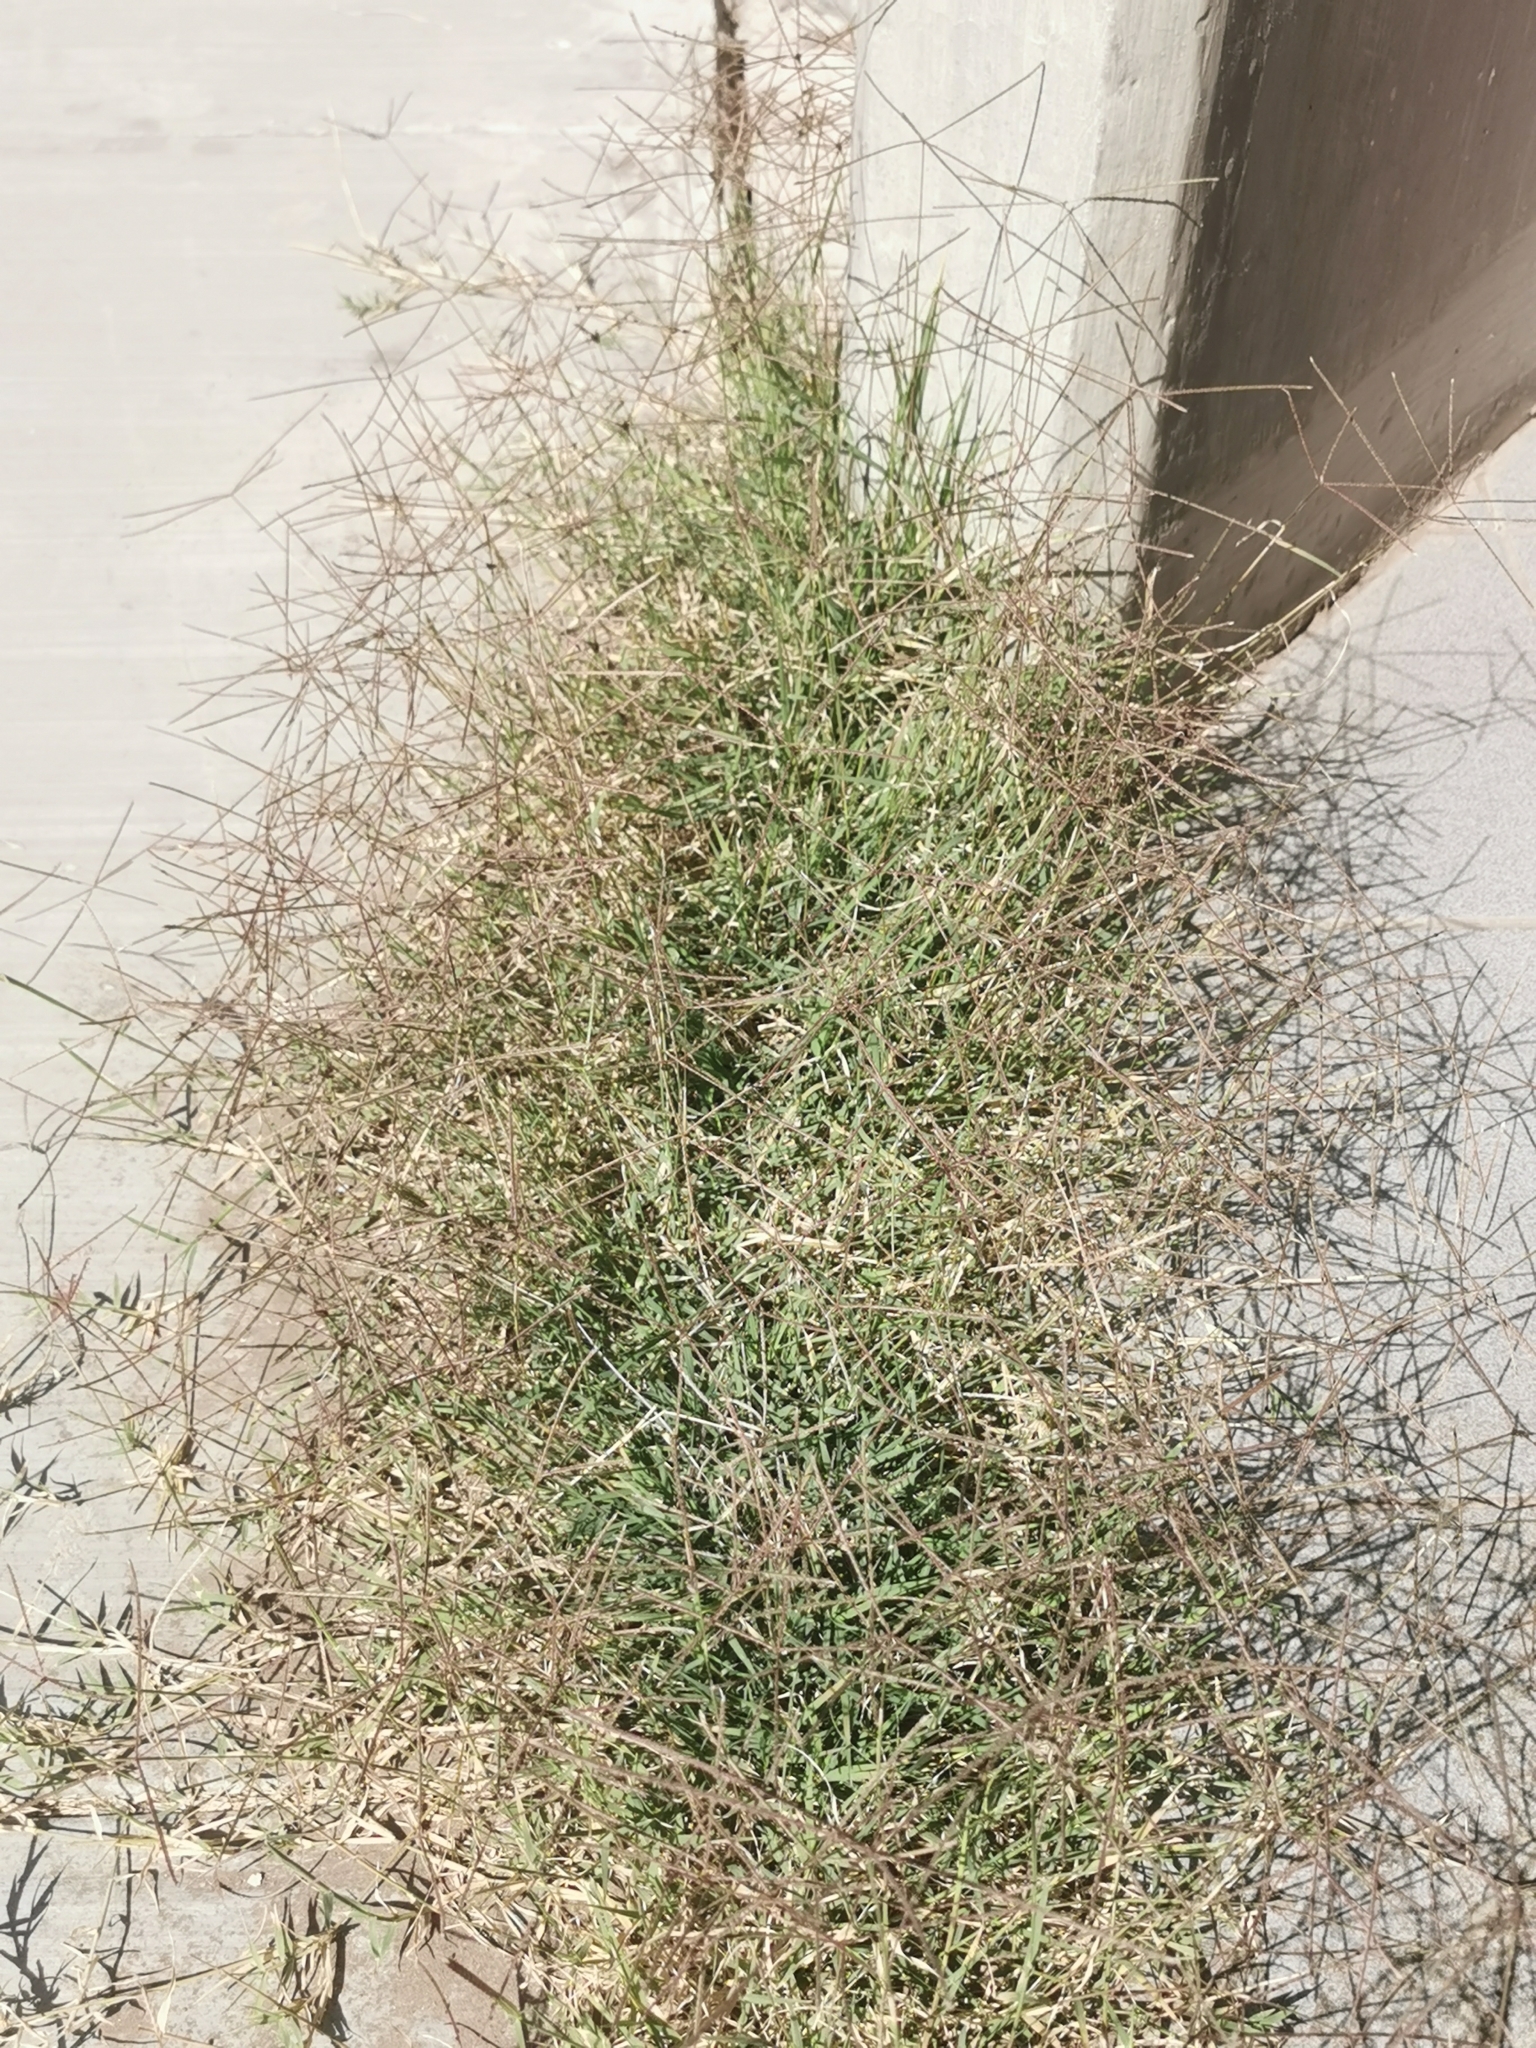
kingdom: Plantae
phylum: Tracheophyta
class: Liliopsida
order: Poales
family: Poaceae
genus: Cynodon
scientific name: Cynodon dactylon
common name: Bermuda grass
